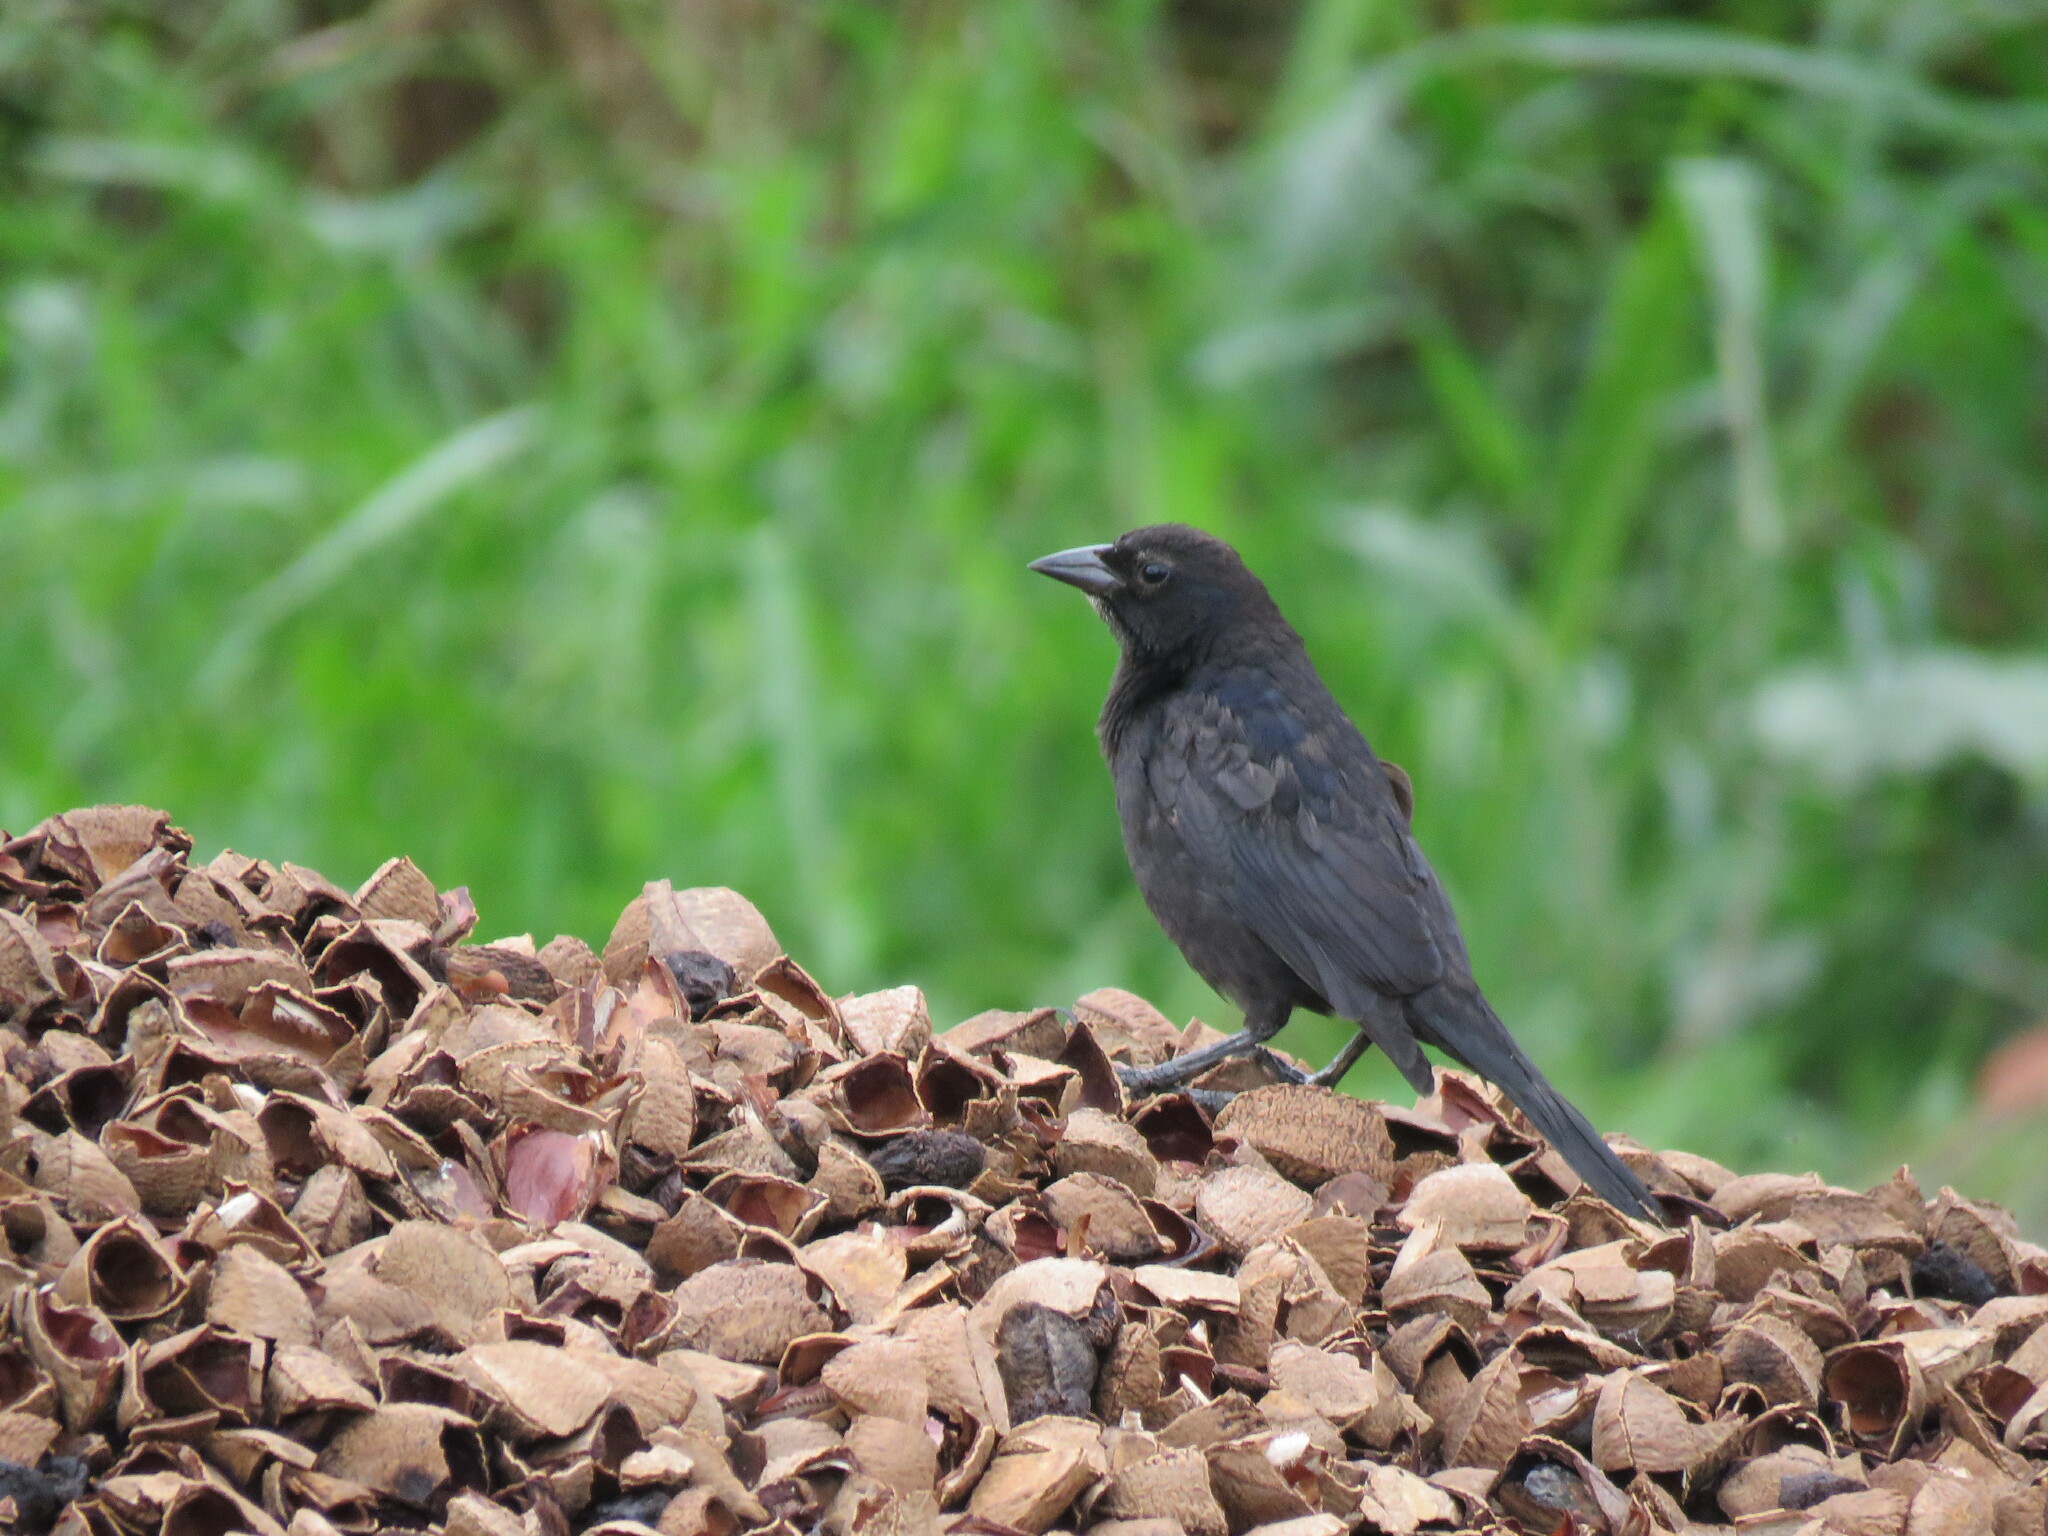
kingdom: Animalia
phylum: Chordata
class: Aves
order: Passeriformes
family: Icteridae
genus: Molothrus
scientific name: Molothrus bonariensis
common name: Shiny cowbird
